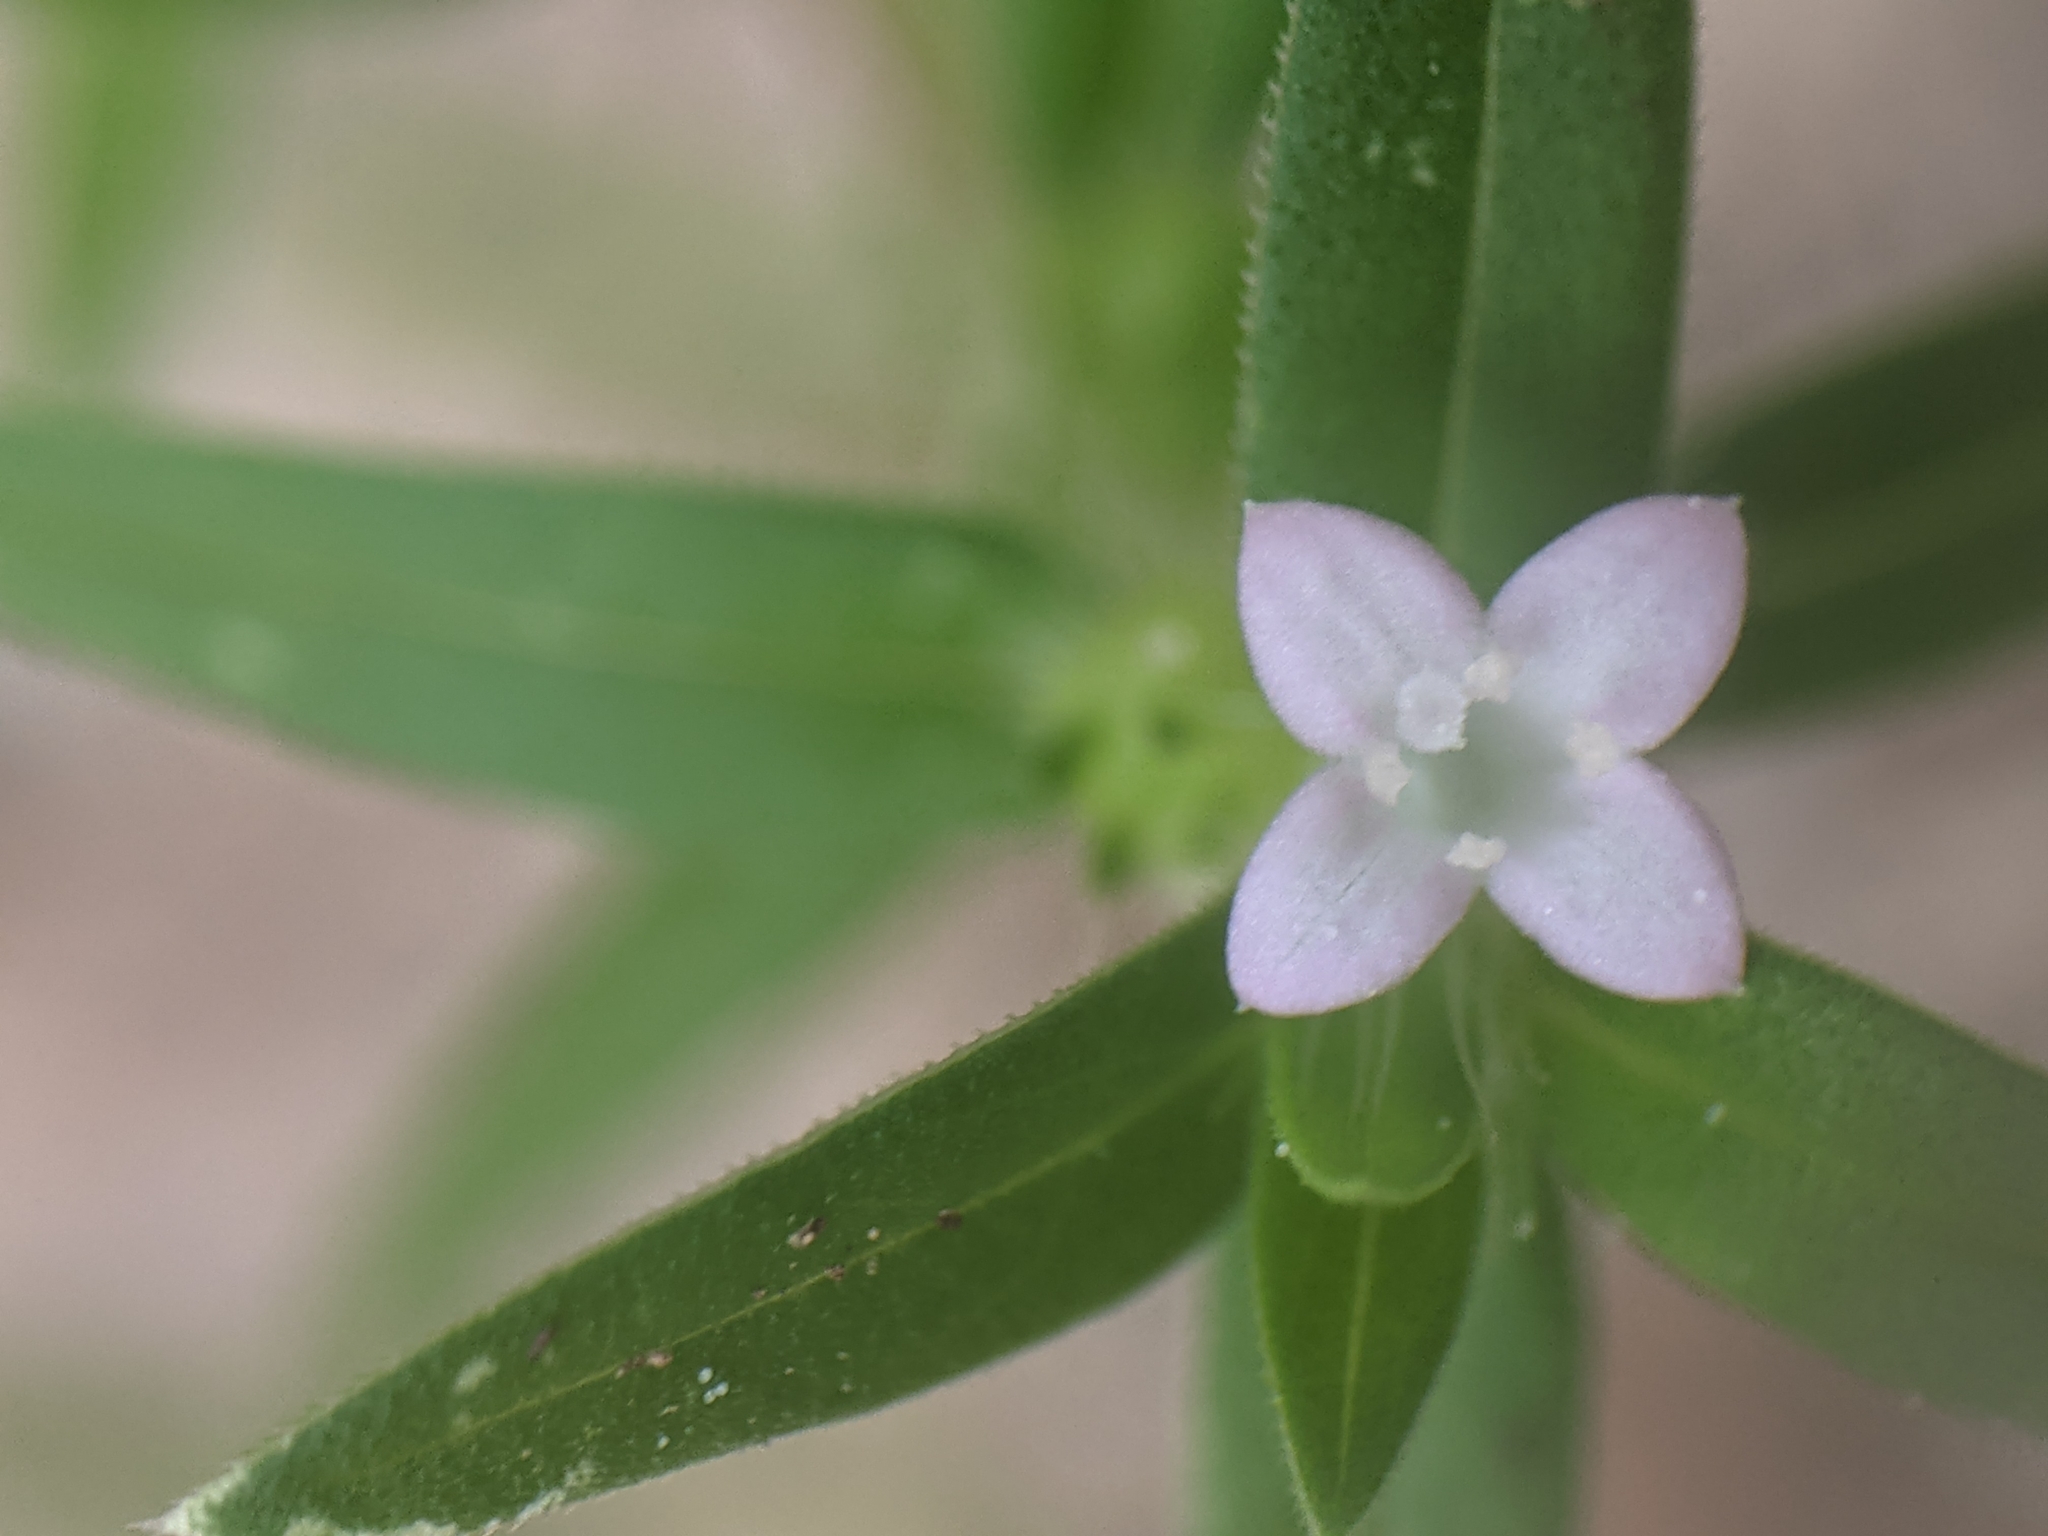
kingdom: Plantae
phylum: Tracheophyta
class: Magnoliopsida
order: Gentianales
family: Rubiaceae
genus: Hexasepalum
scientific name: Hexasepalum teres
